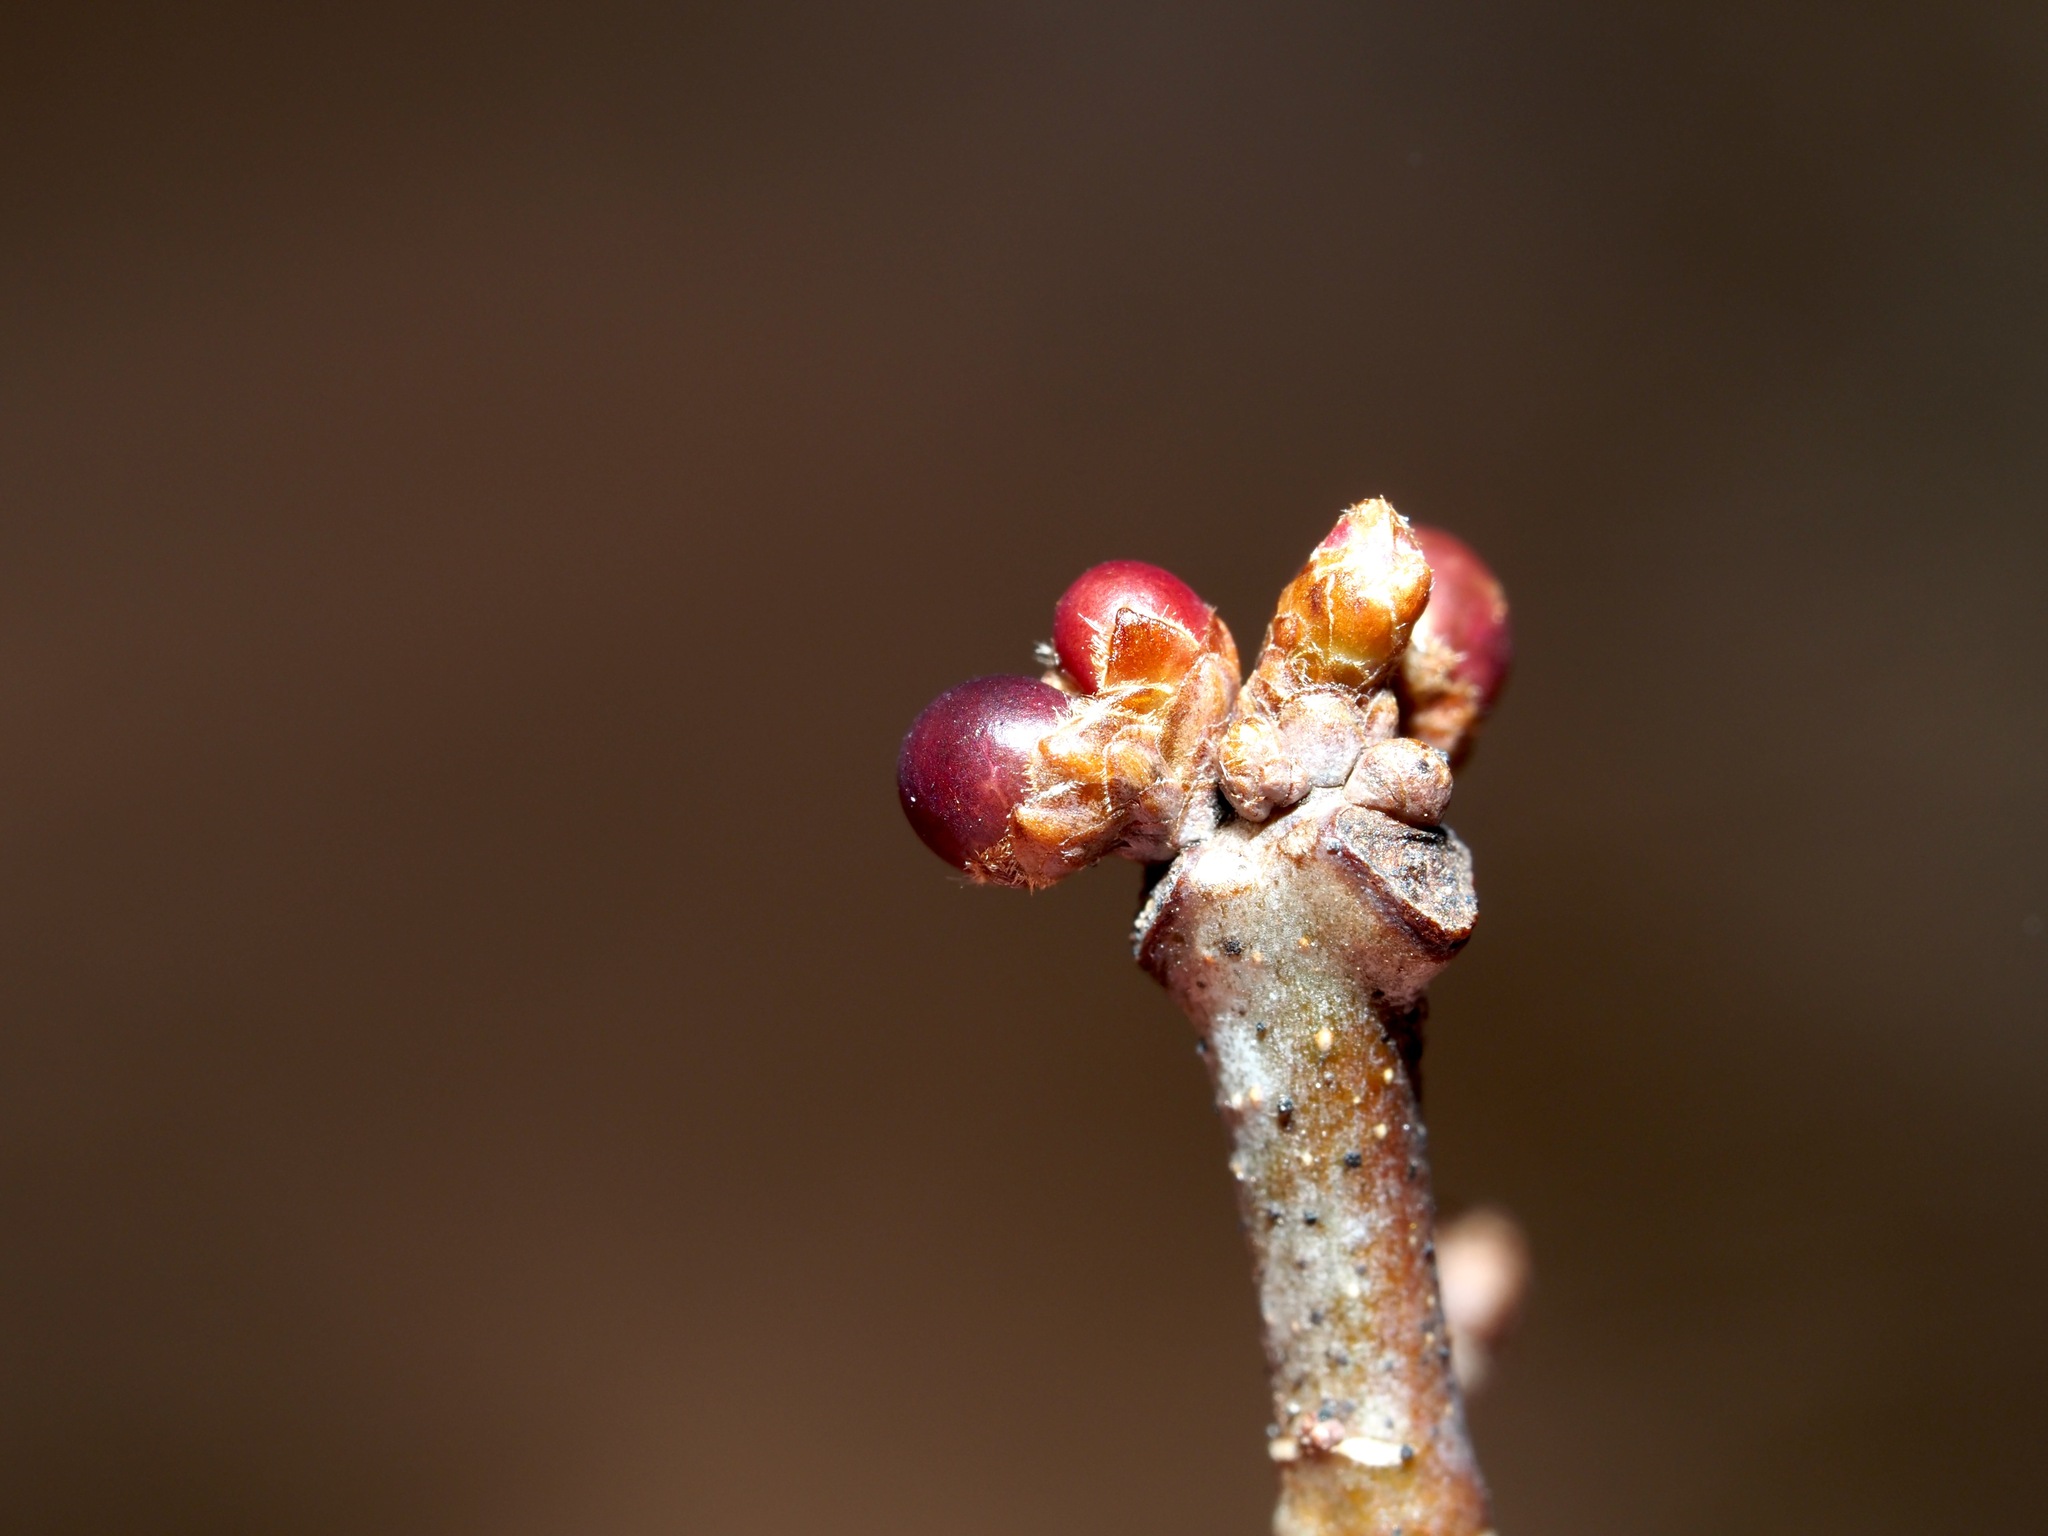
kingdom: Animalia
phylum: Arthropoda
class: Insecta
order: Hymenoptera
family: Cynipidae
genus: Neuroterus
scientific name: Neuroterus
